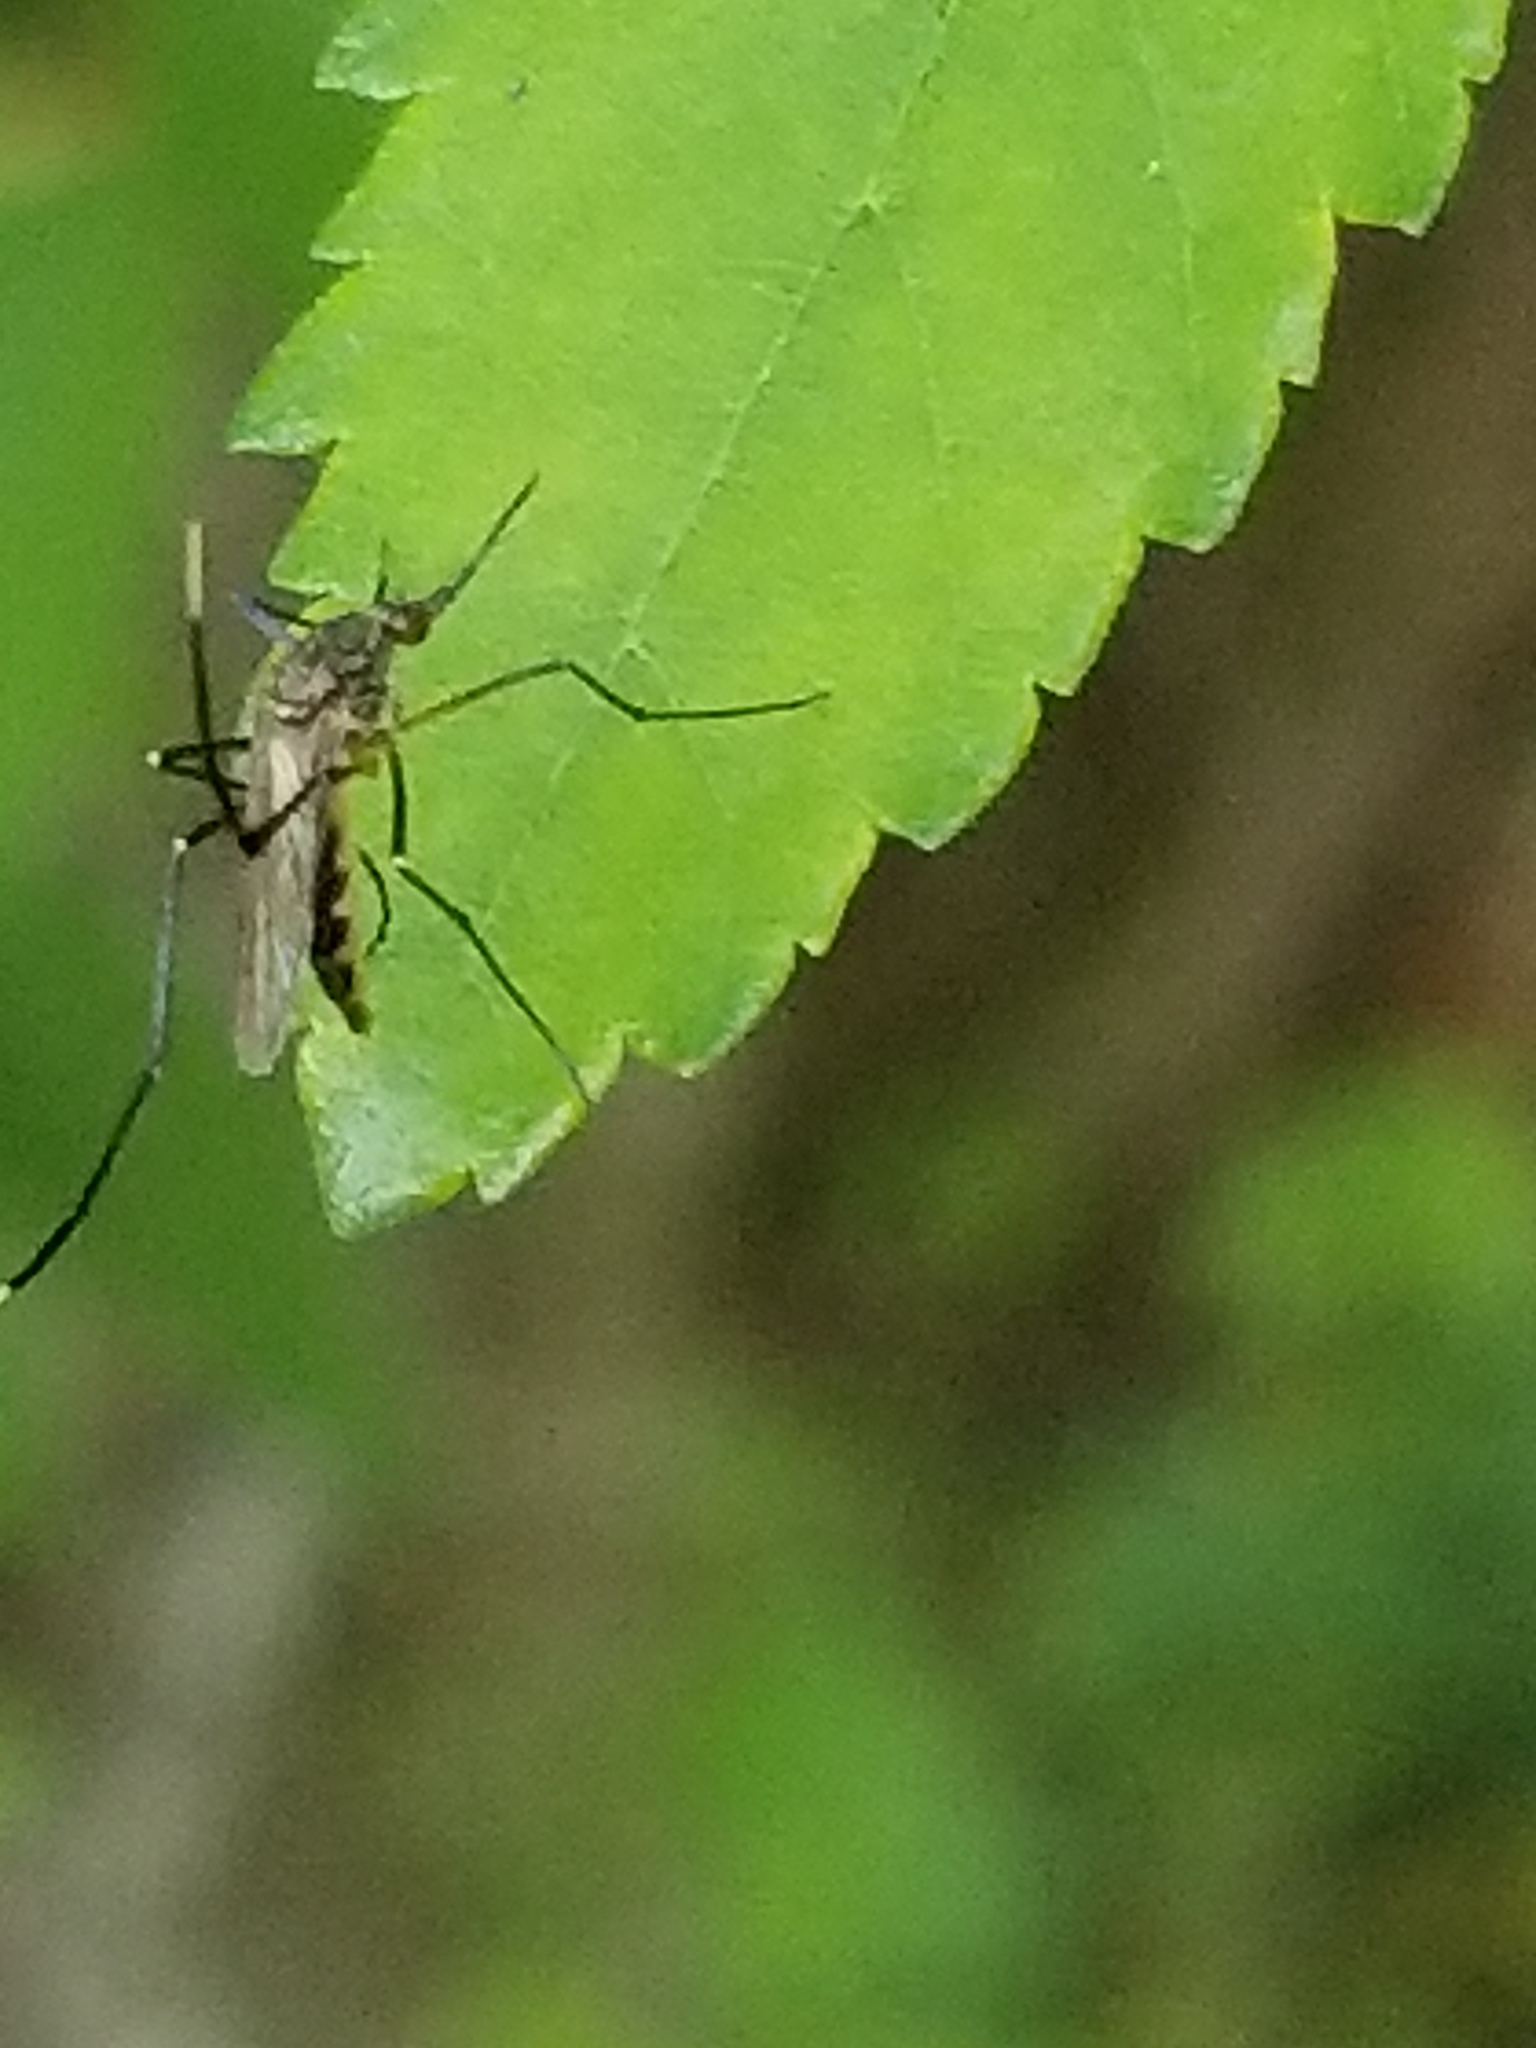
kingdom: Animalia
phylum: Arthropoda
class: Insecta
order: Diptera
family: Culicidae
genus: Psorophora
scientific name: Psorophora cyanescens
